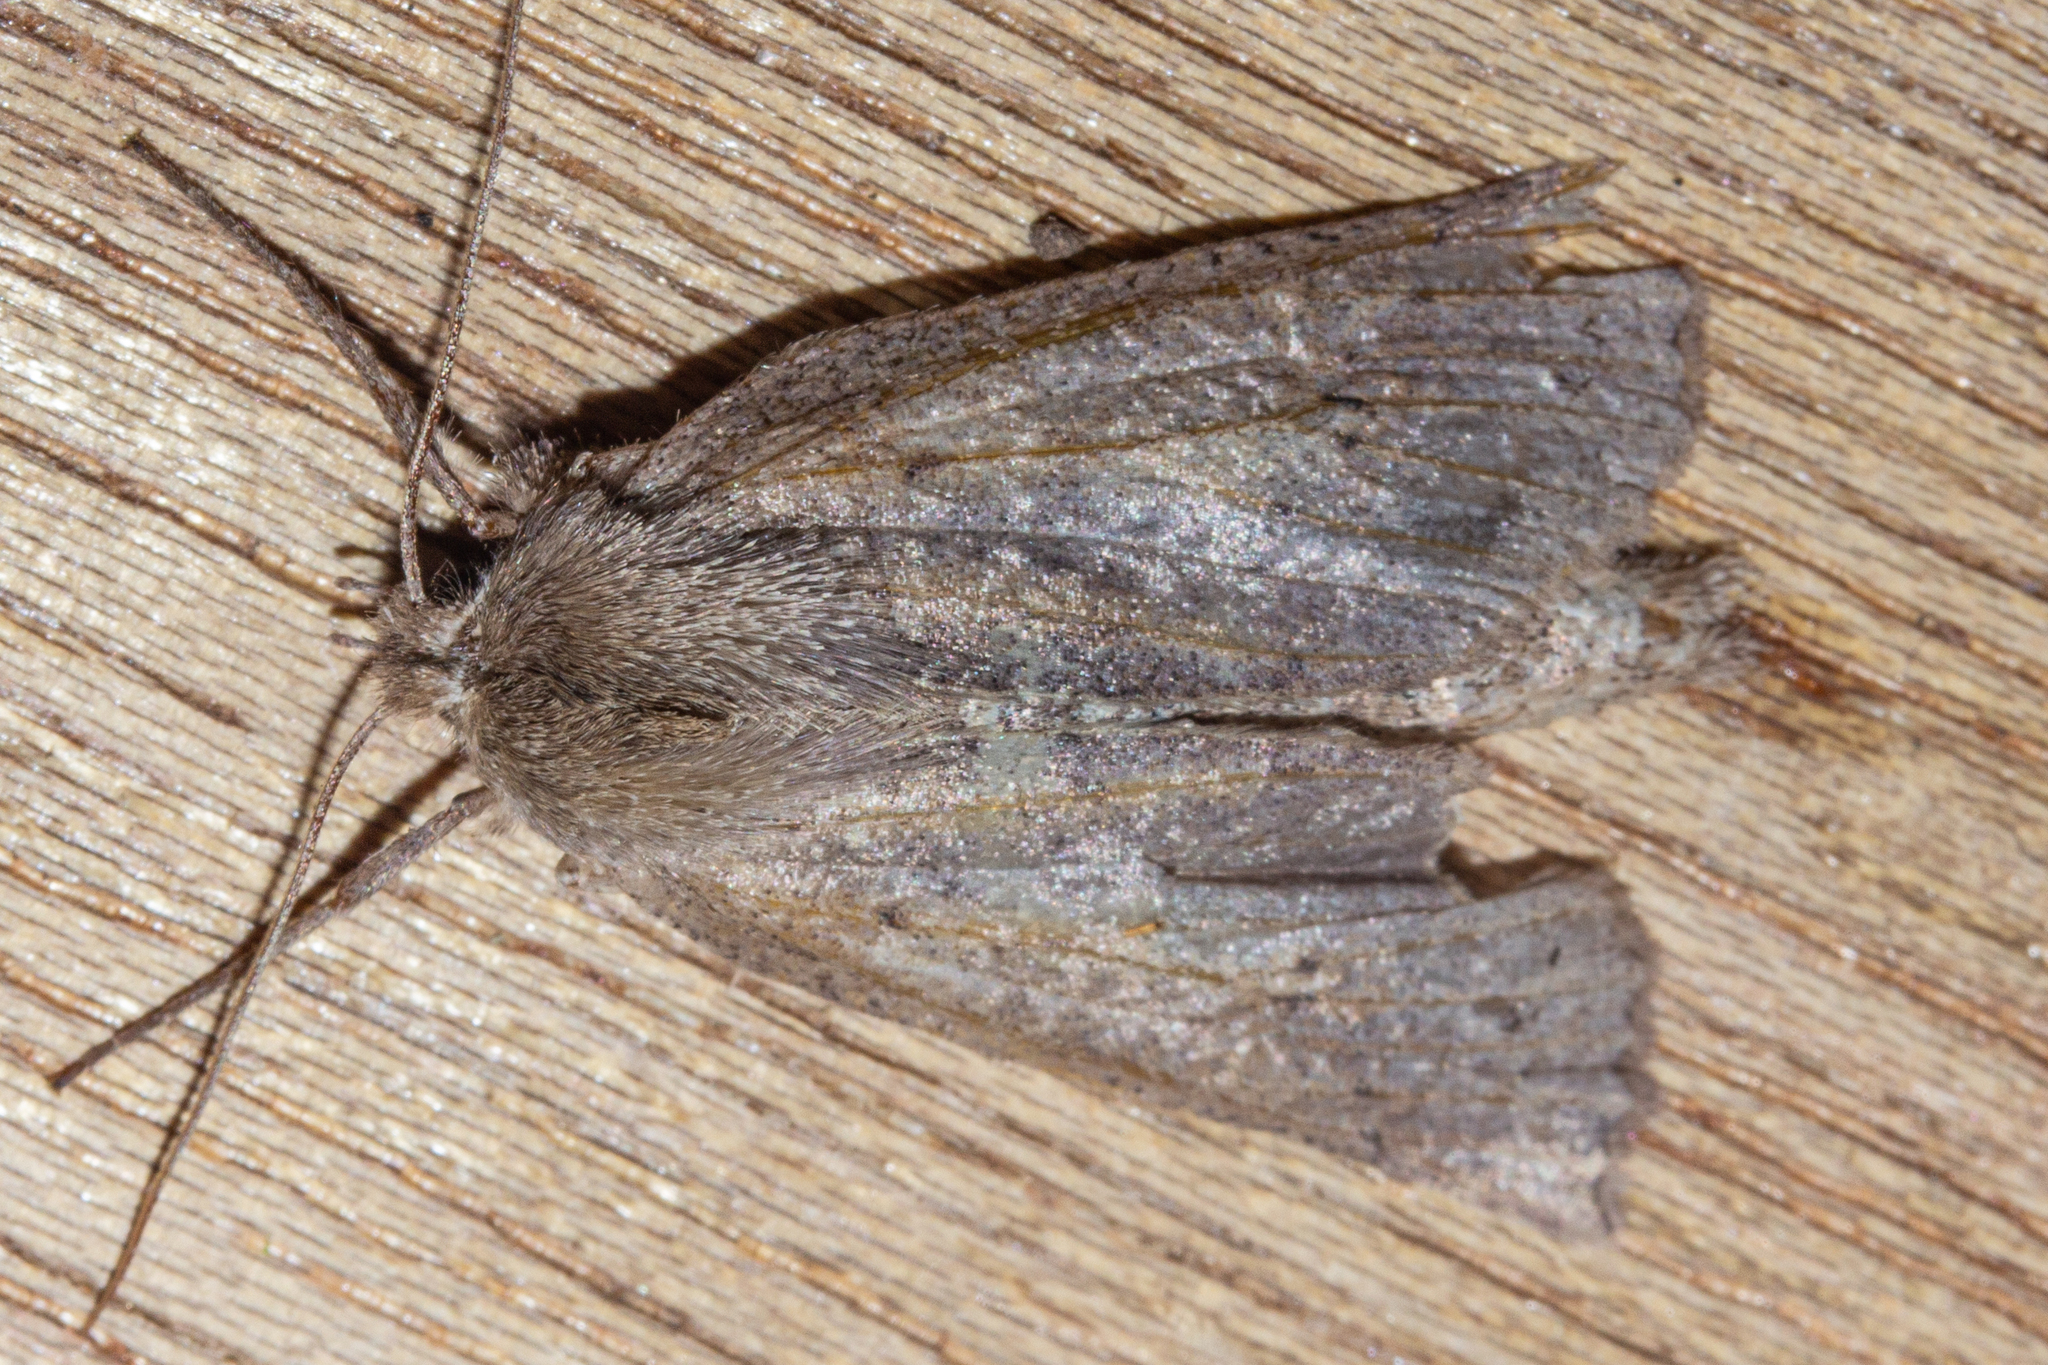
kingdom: Animalia
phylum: Arthropoda
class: Insecta
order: Lepidoptera
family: Geometridae
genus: Declana
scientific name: Declana leptomera
